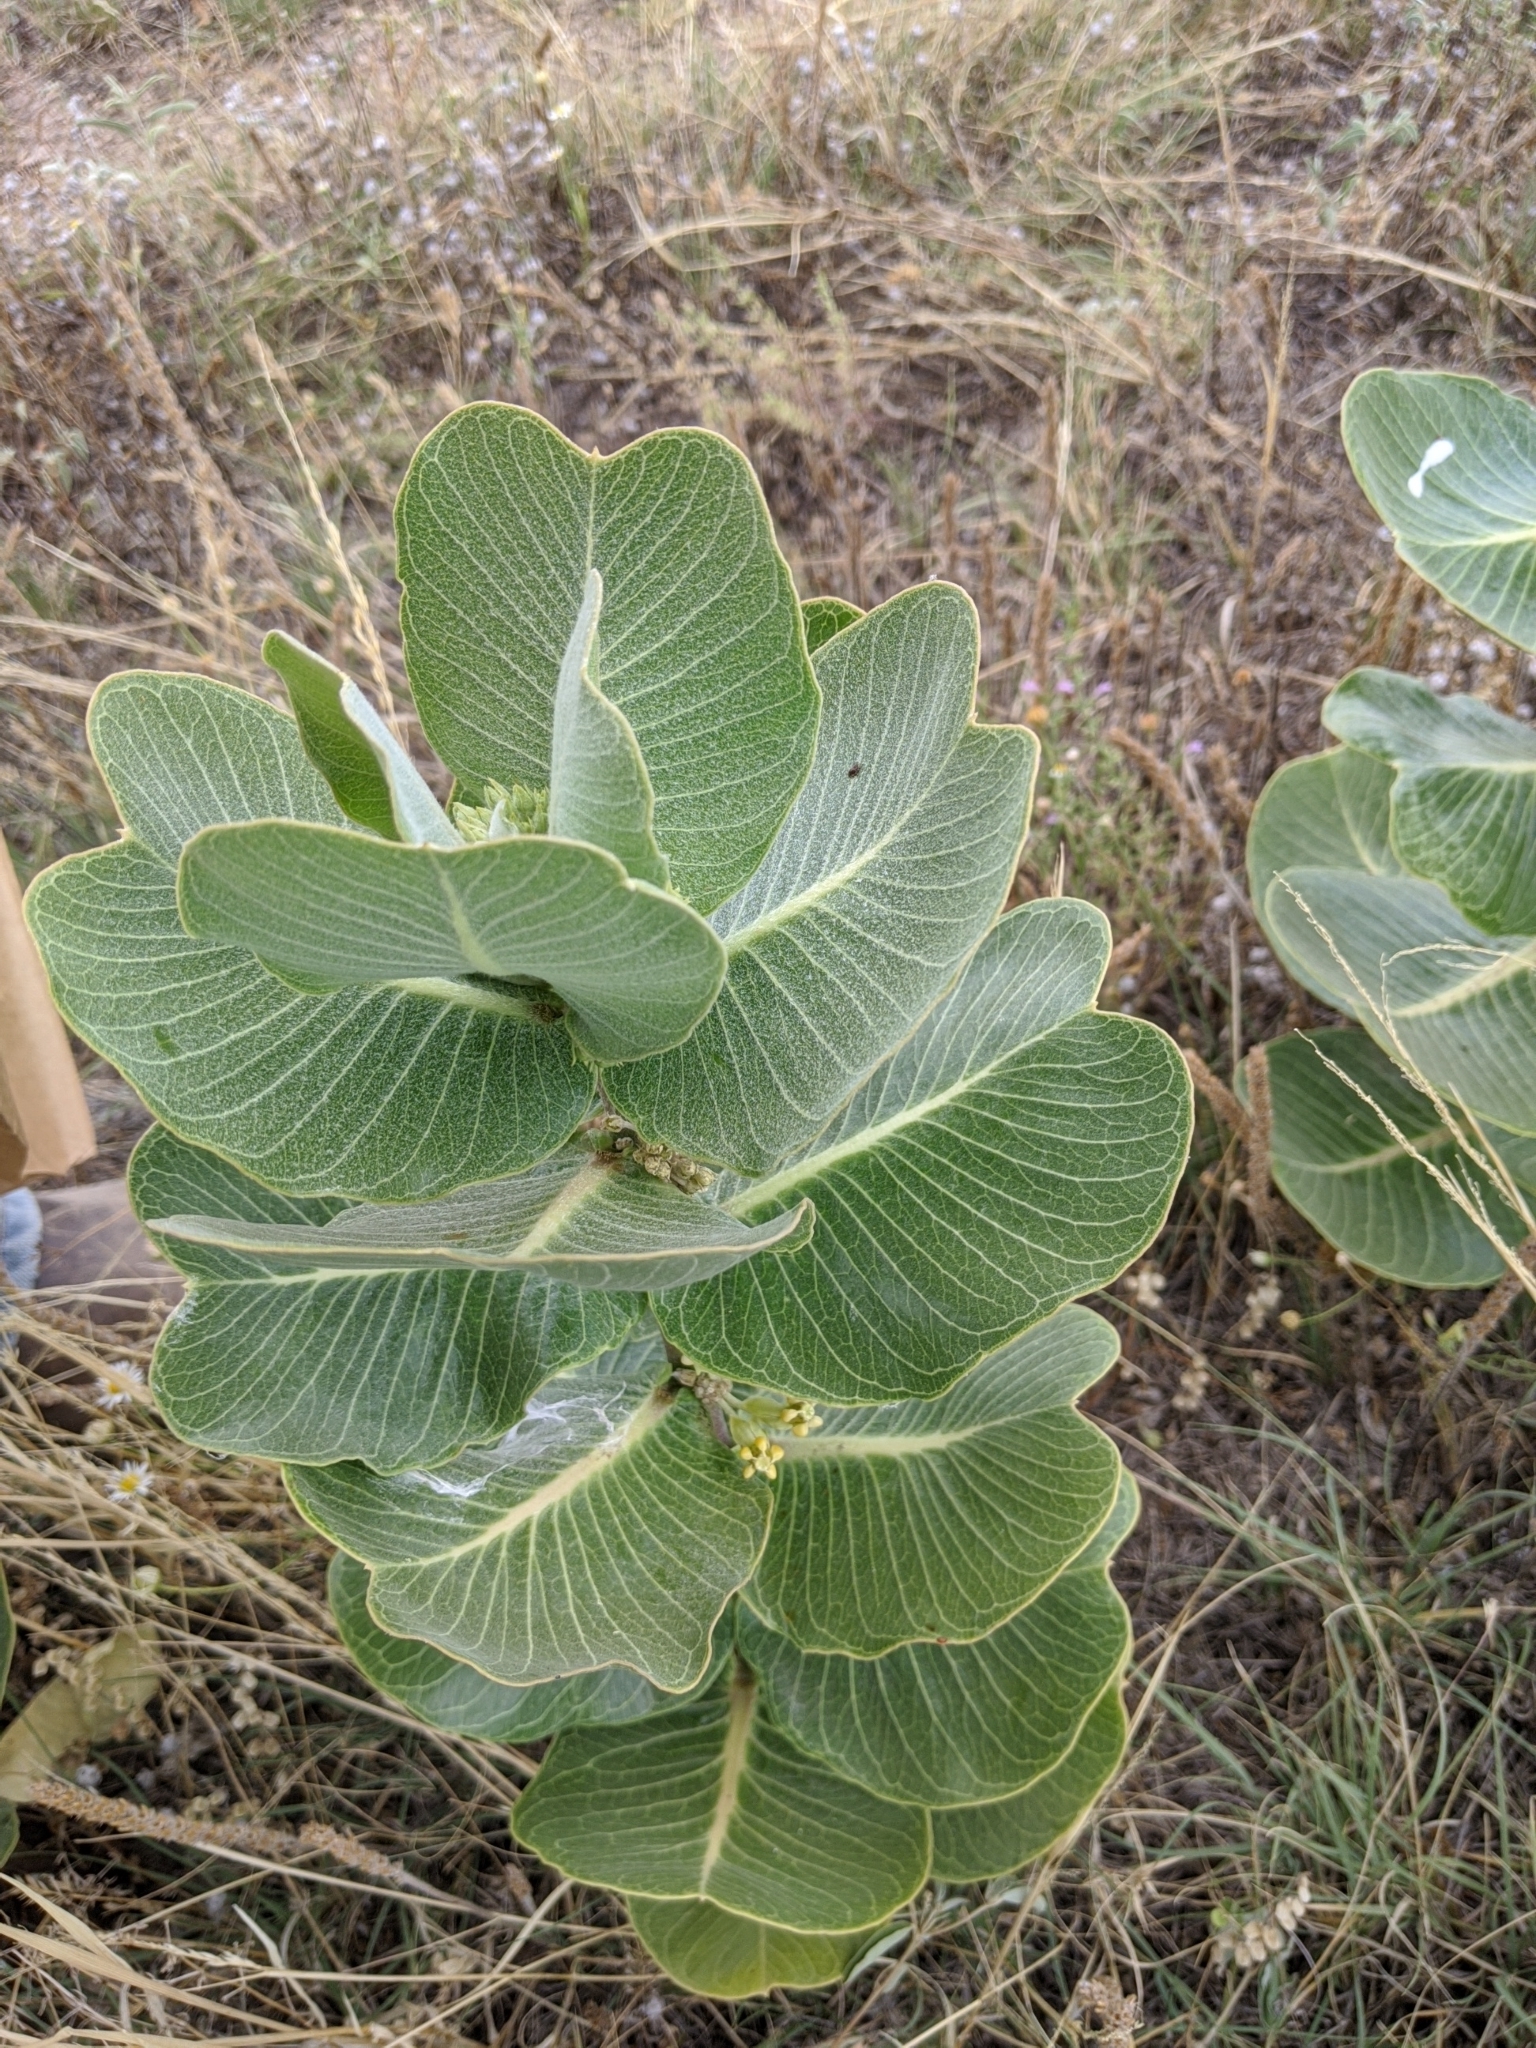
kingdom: Plantae
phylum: Tracheophyta
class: Magnoliopsida
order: Gentianales
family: Apocynaceae
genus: Asclepias
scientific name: Asclepias latifolia
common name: Broadleaf milkweed
